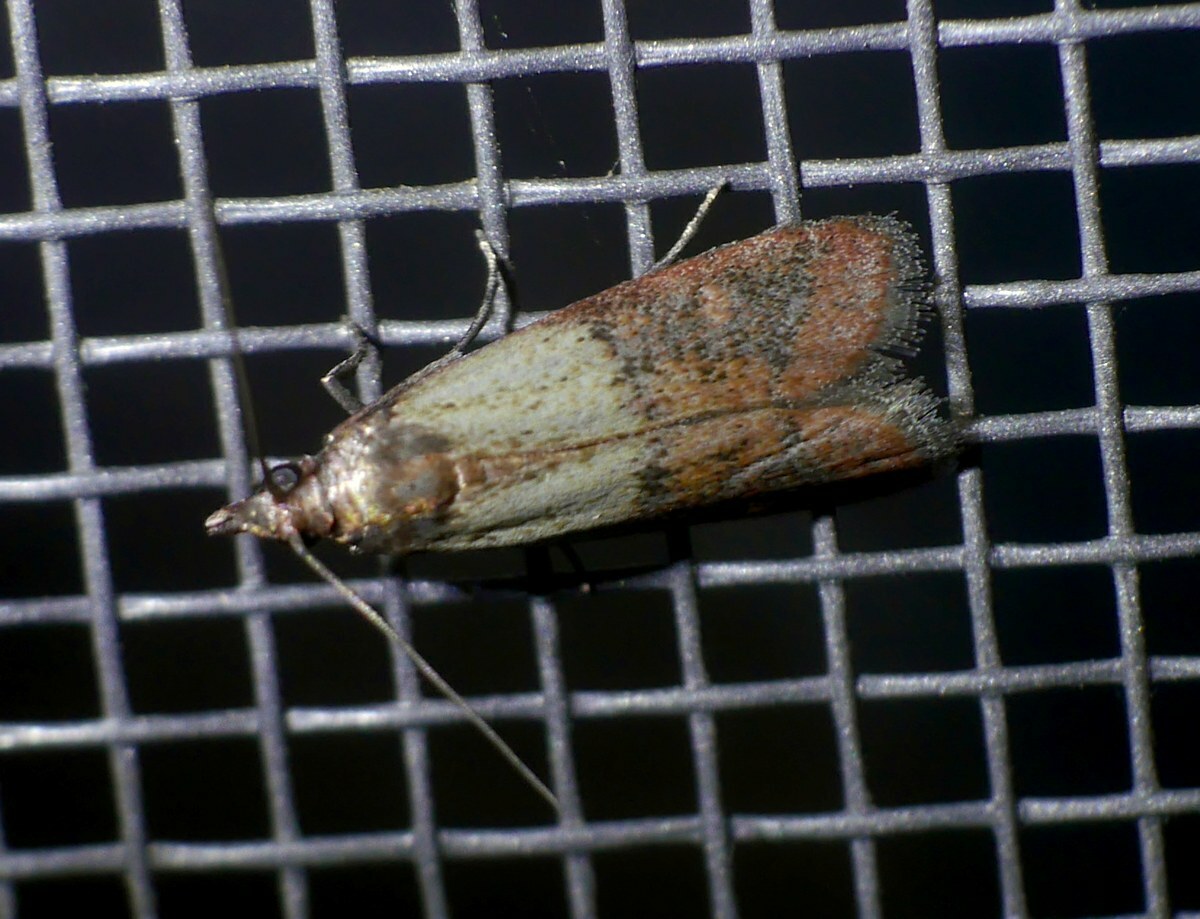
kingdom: Animalia
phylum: Arthropoda
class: Insecta
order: Lepidoptera
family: Pyralidae
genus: Plodia
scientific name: Plodia interpunctella
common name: Indian meal moth
